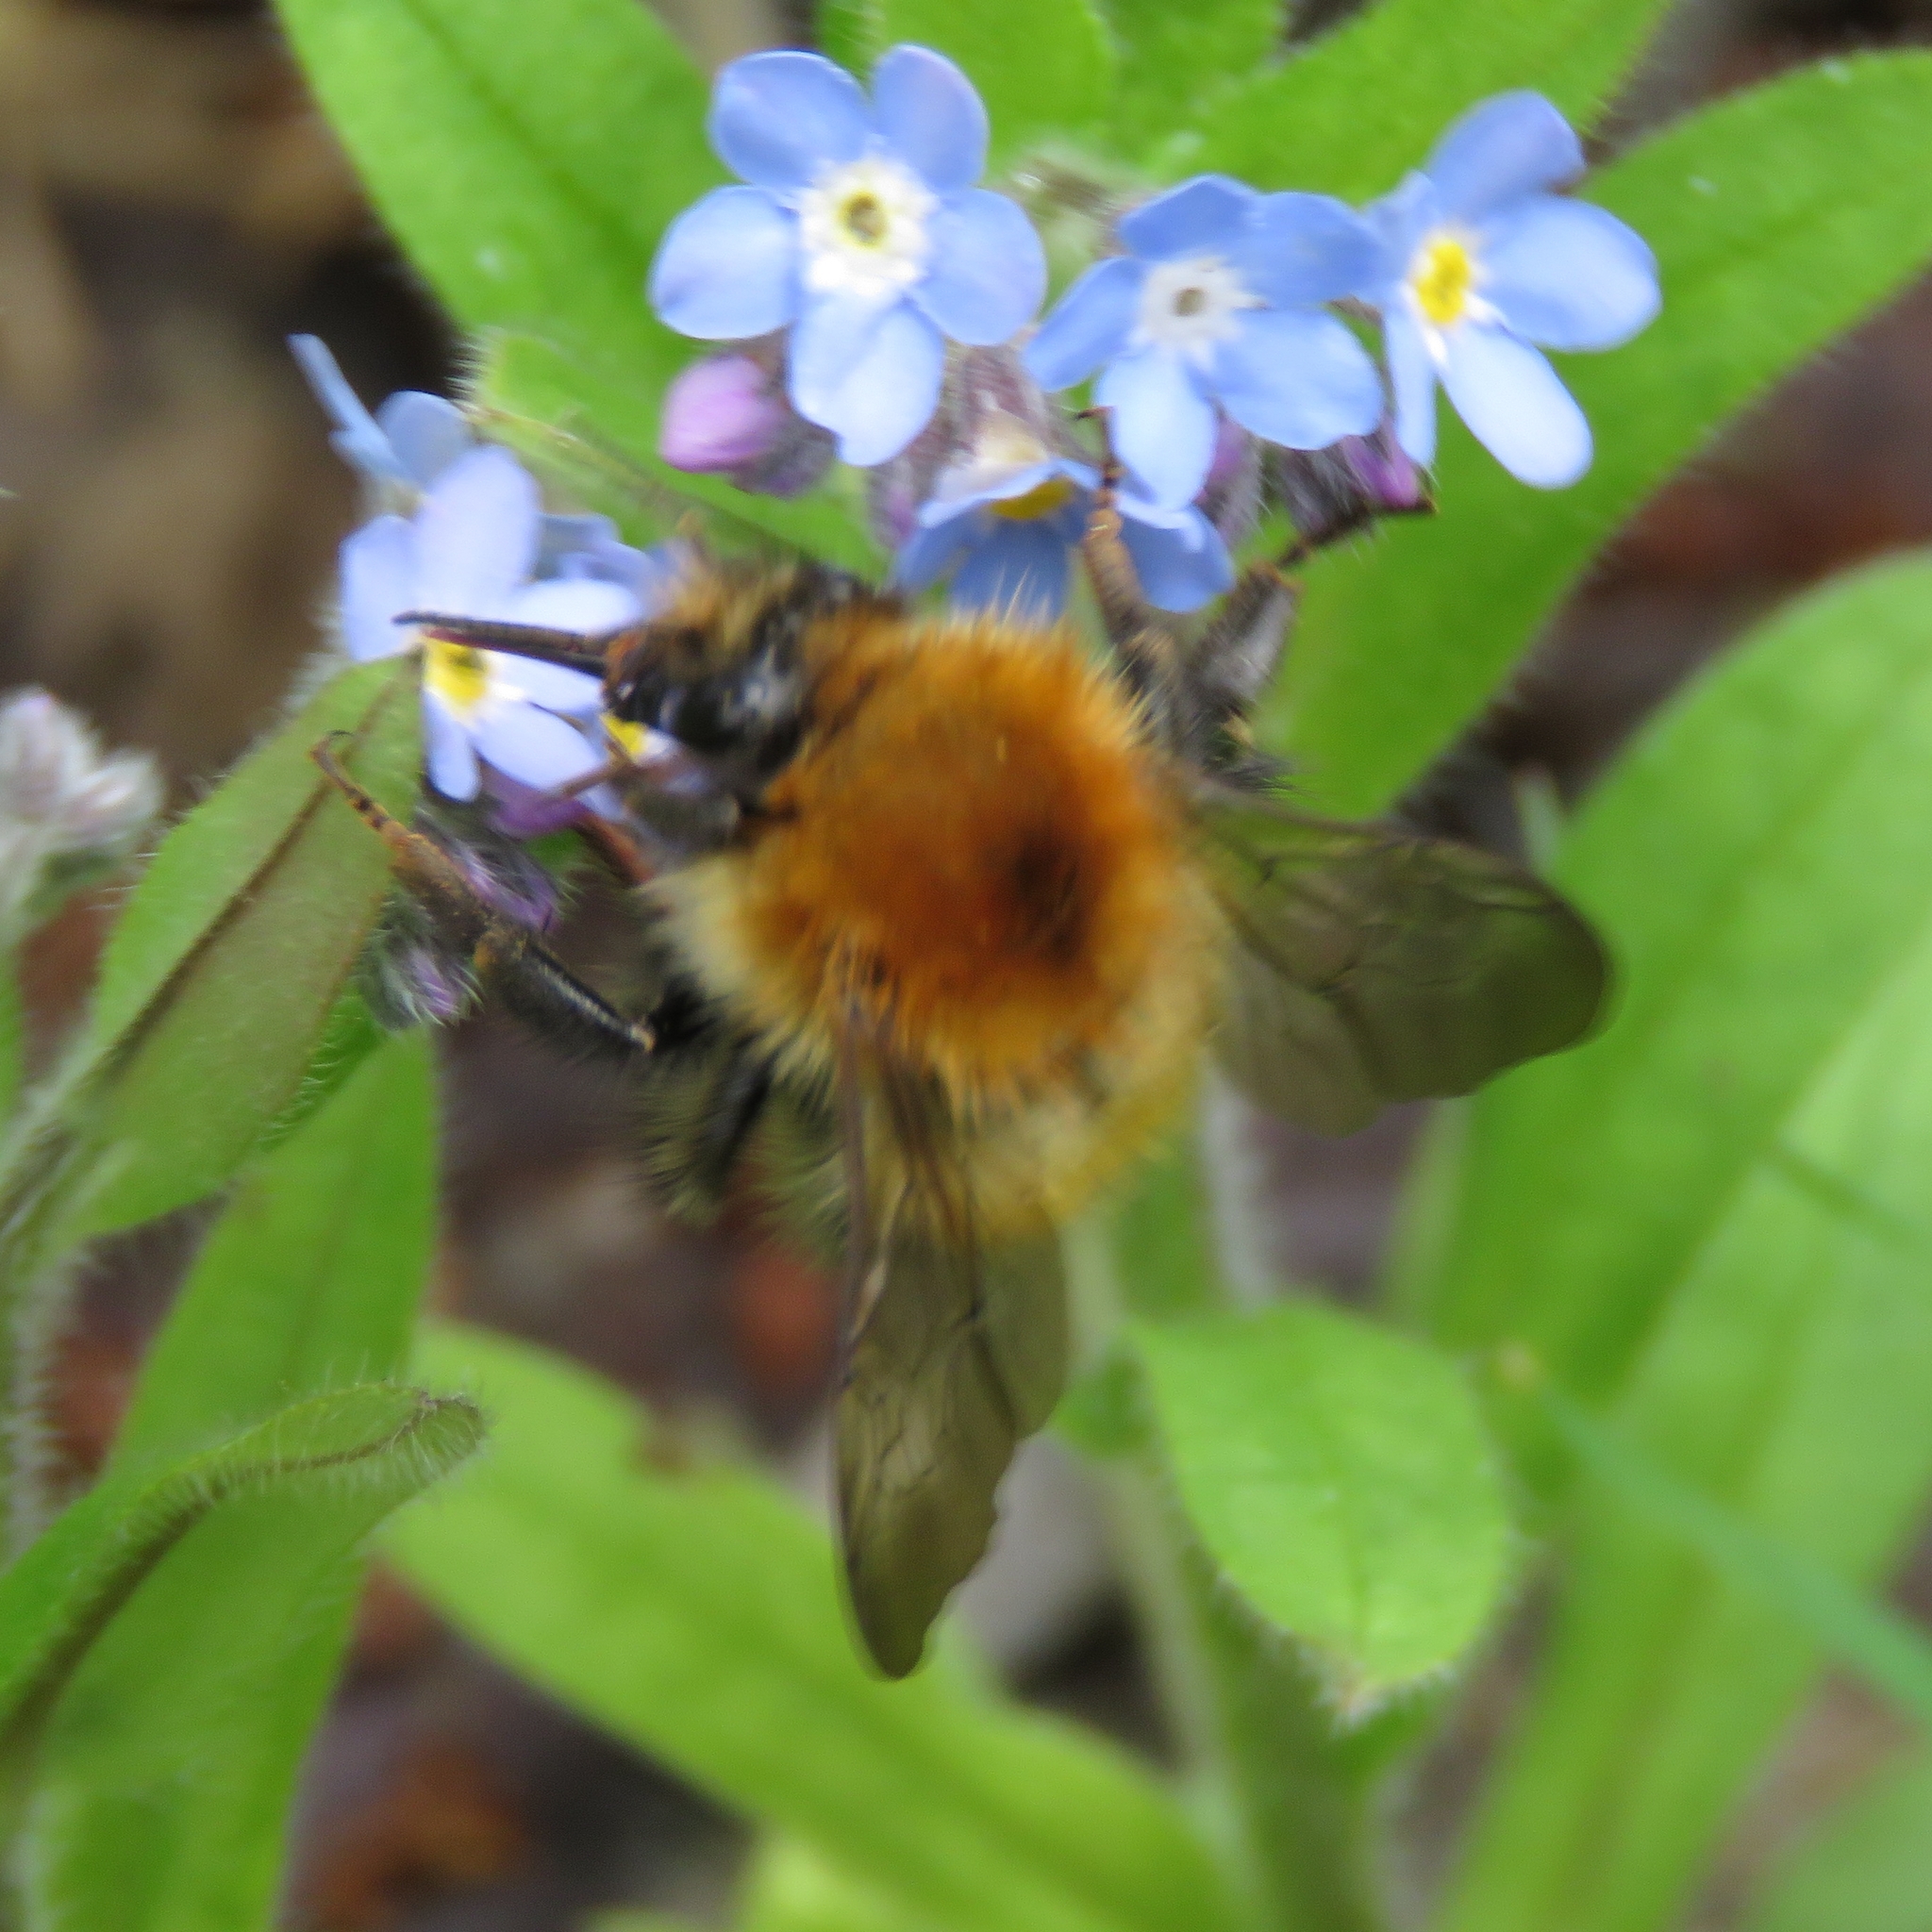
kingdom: Animalia
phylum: Arthropoda
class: Insecta
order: Hymenoptera
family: Apidae
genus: Bombus
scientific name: Bombus pascuorum
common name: Common carder bee
